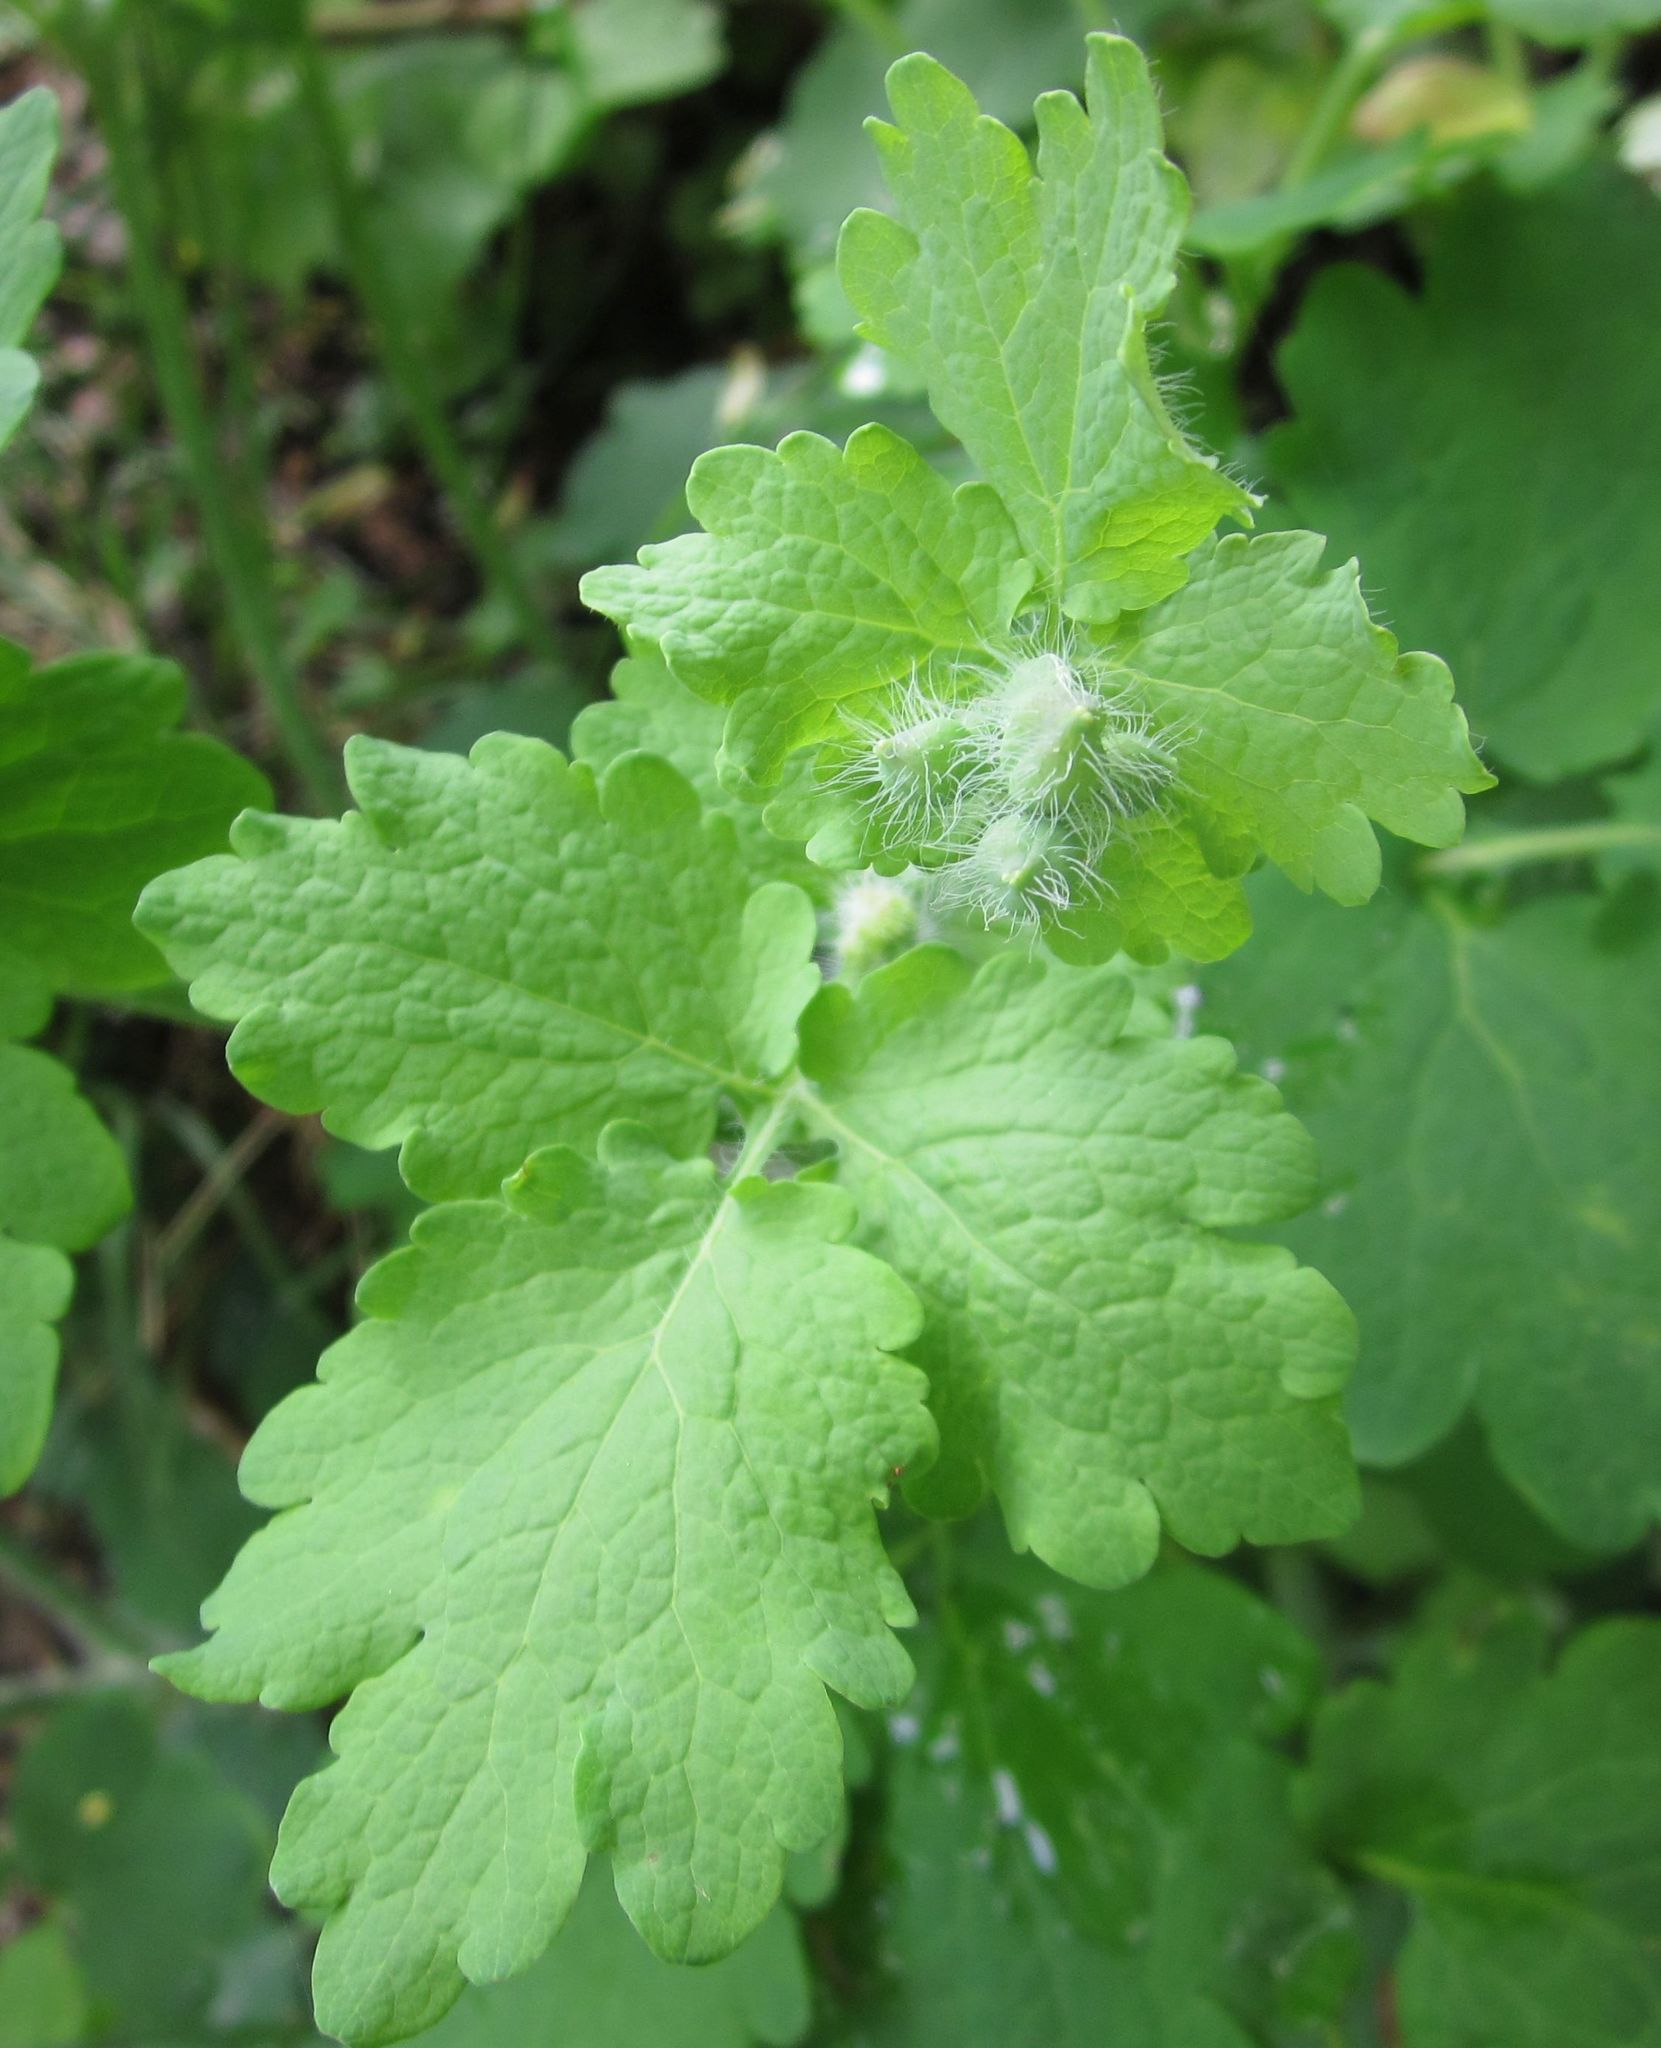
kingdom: Plantae
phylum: Tracheophyta
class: Magnoliopsida
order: Ranunculales
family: Papaveraceae
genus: Chelidonium
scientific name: Chelidonium majus
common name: Greater celandine
